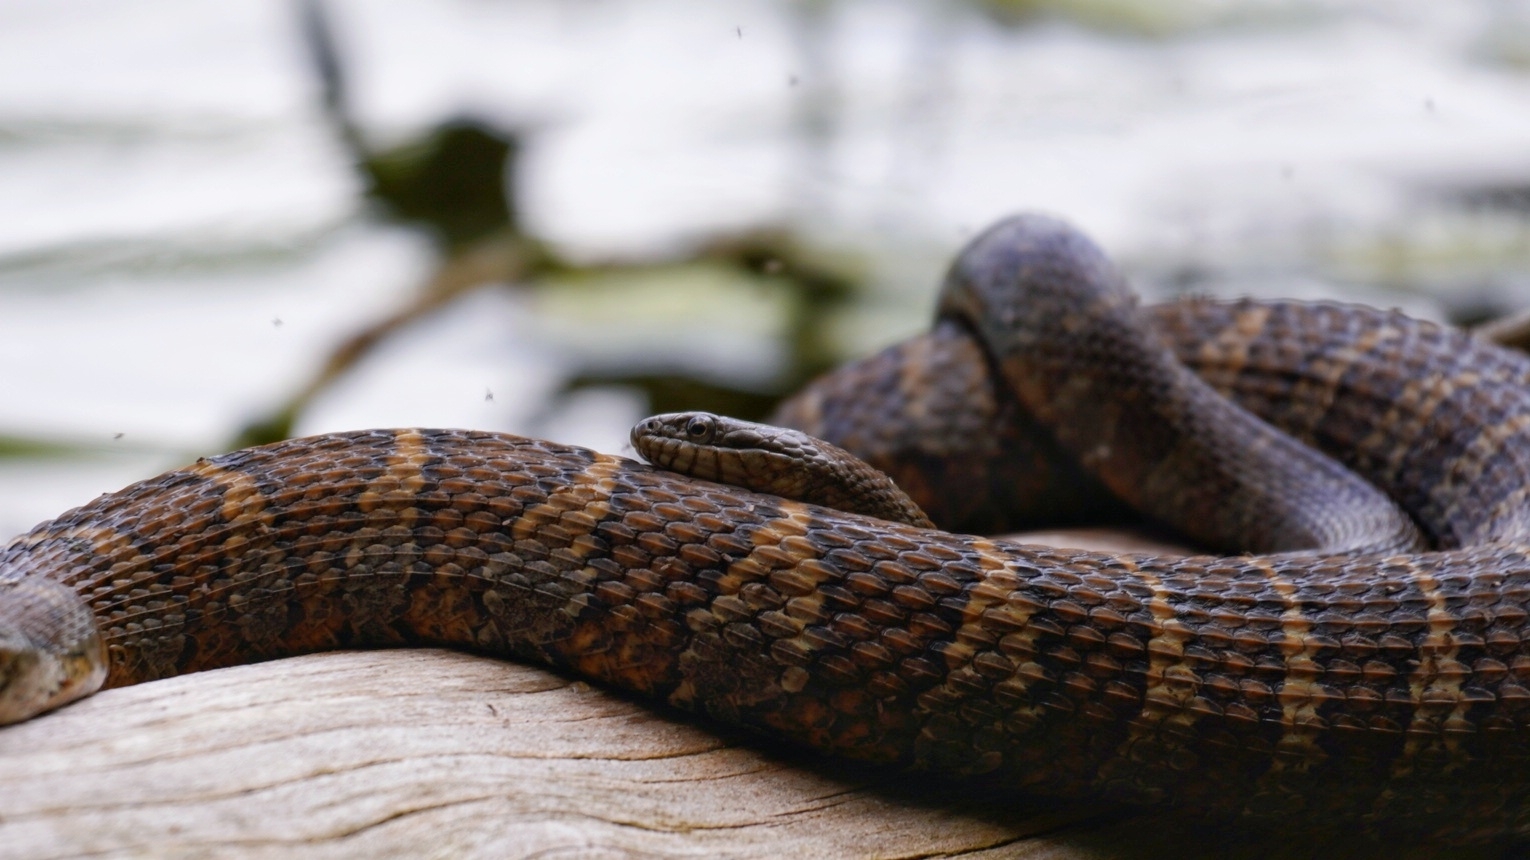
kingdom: Animalia
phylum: Chordata
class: Squamata
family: Colubridae
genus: Nerodia
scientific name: Nerodia sipedon
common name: Northern water snake
